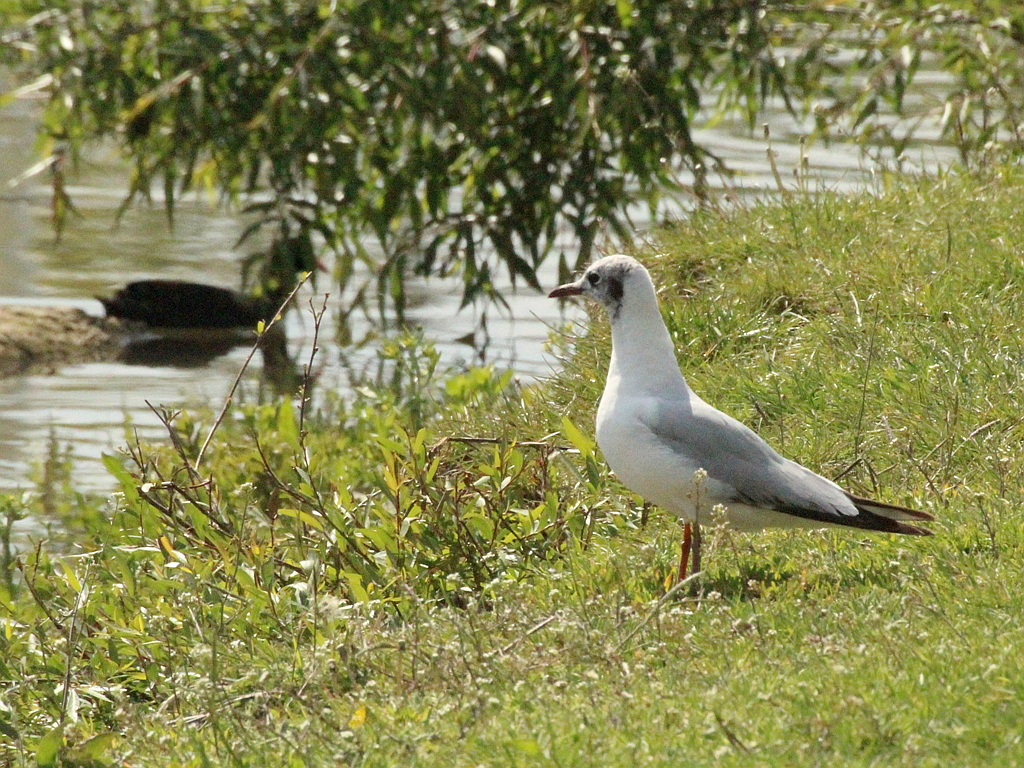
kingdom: Animalia
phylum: Chordata
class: Aves
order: Charadriiformes
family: Laridae
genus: Chroicocephalus
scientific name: Chroicocephalus ridibundus
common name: Black-headed gull
